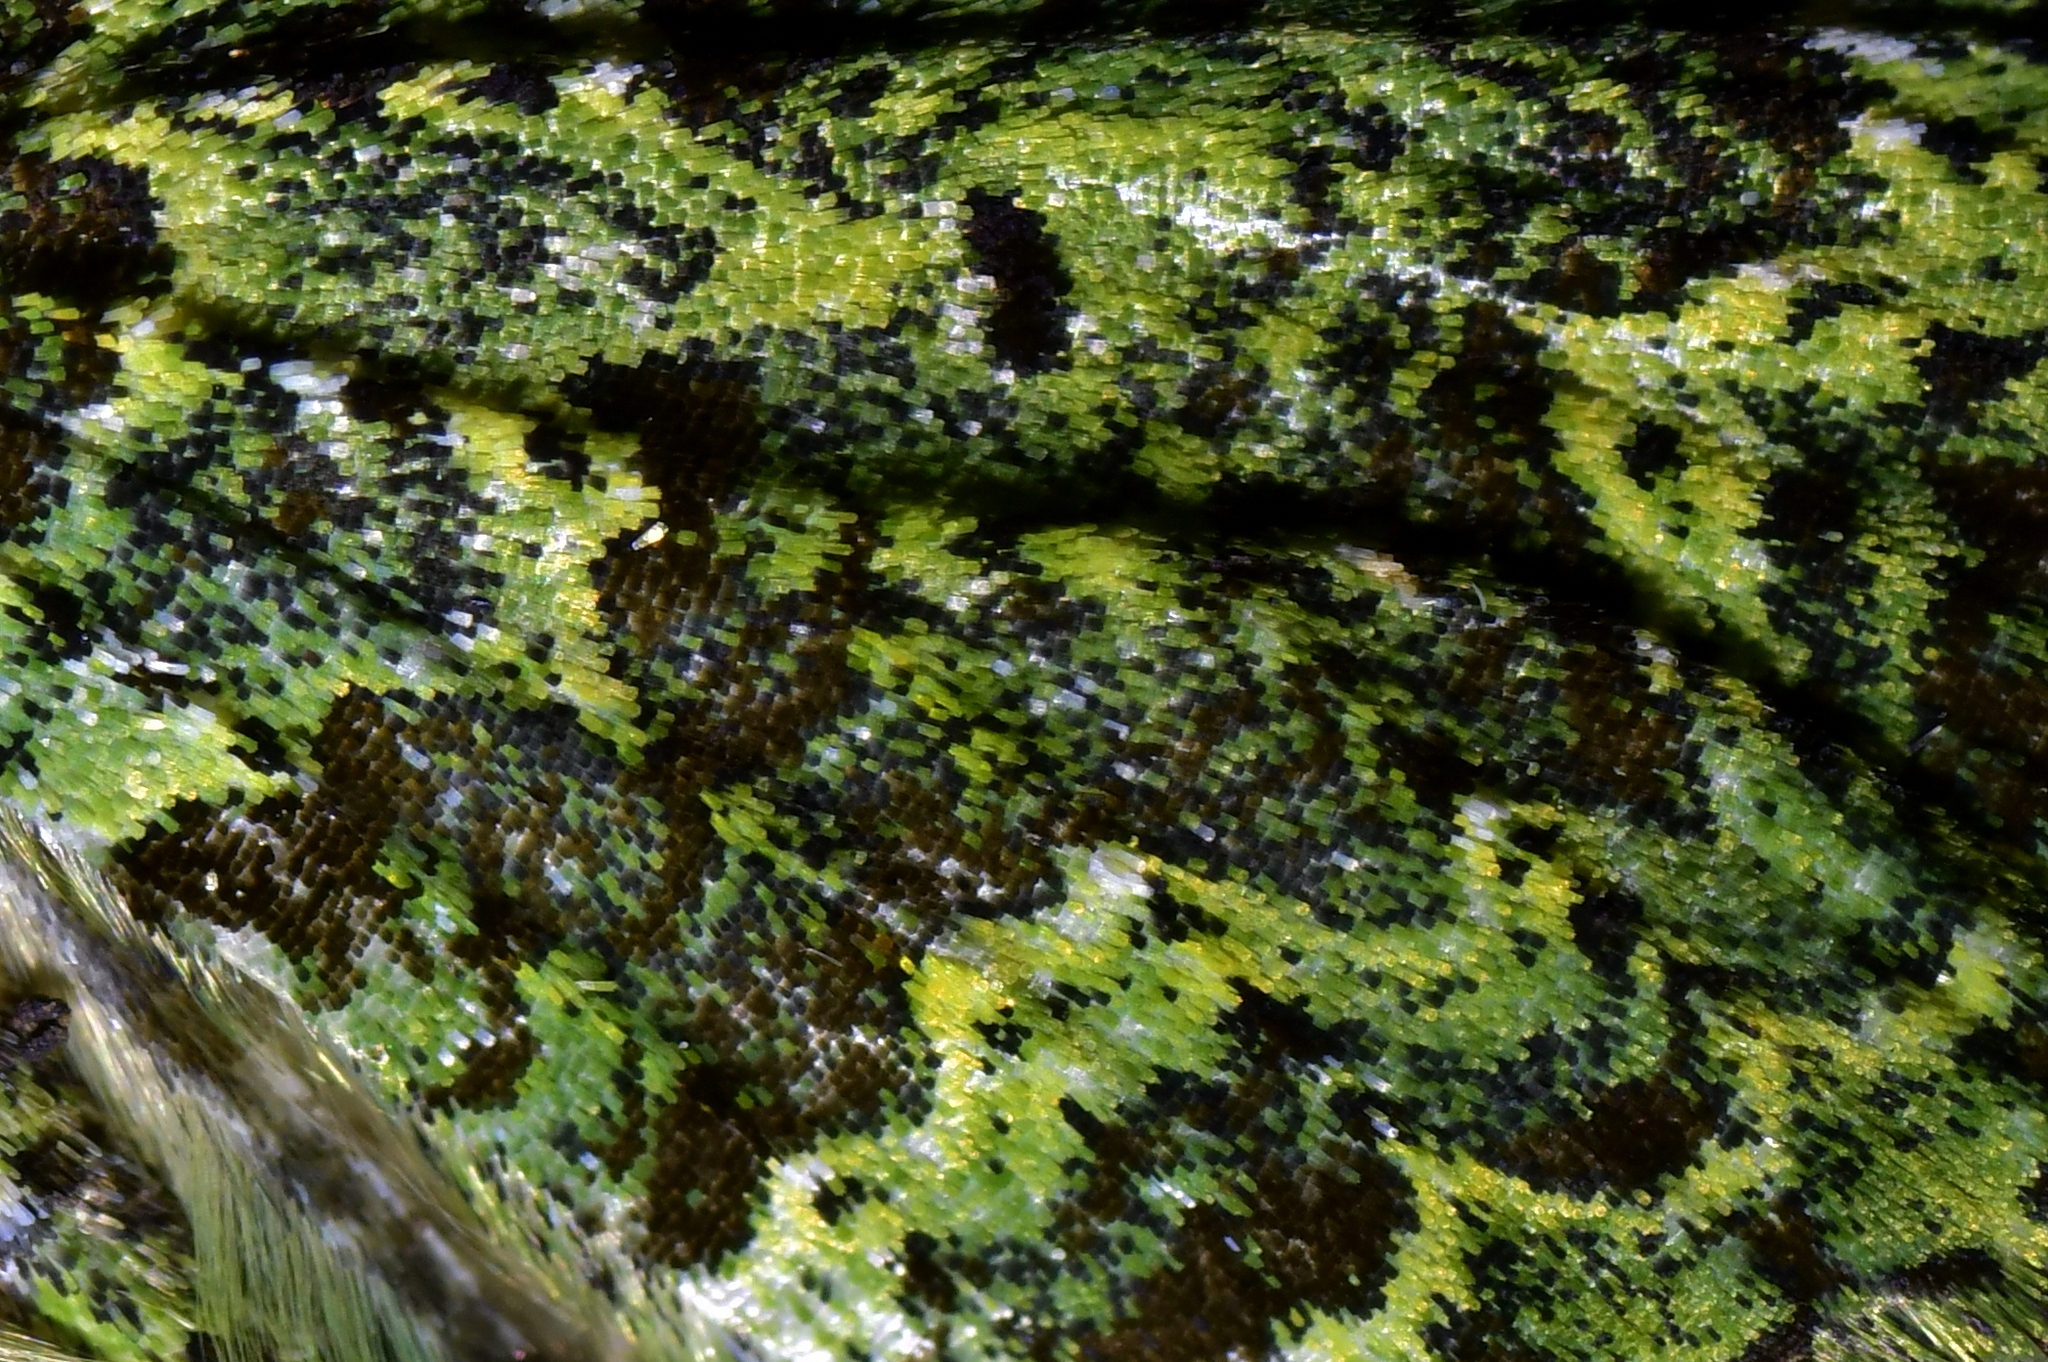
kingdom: Animalia
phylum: Arthropoda
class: Insecta
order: Lepidoptera
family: Geometridae
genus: Austrocidaria
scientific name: Austrocidaria callichlora
